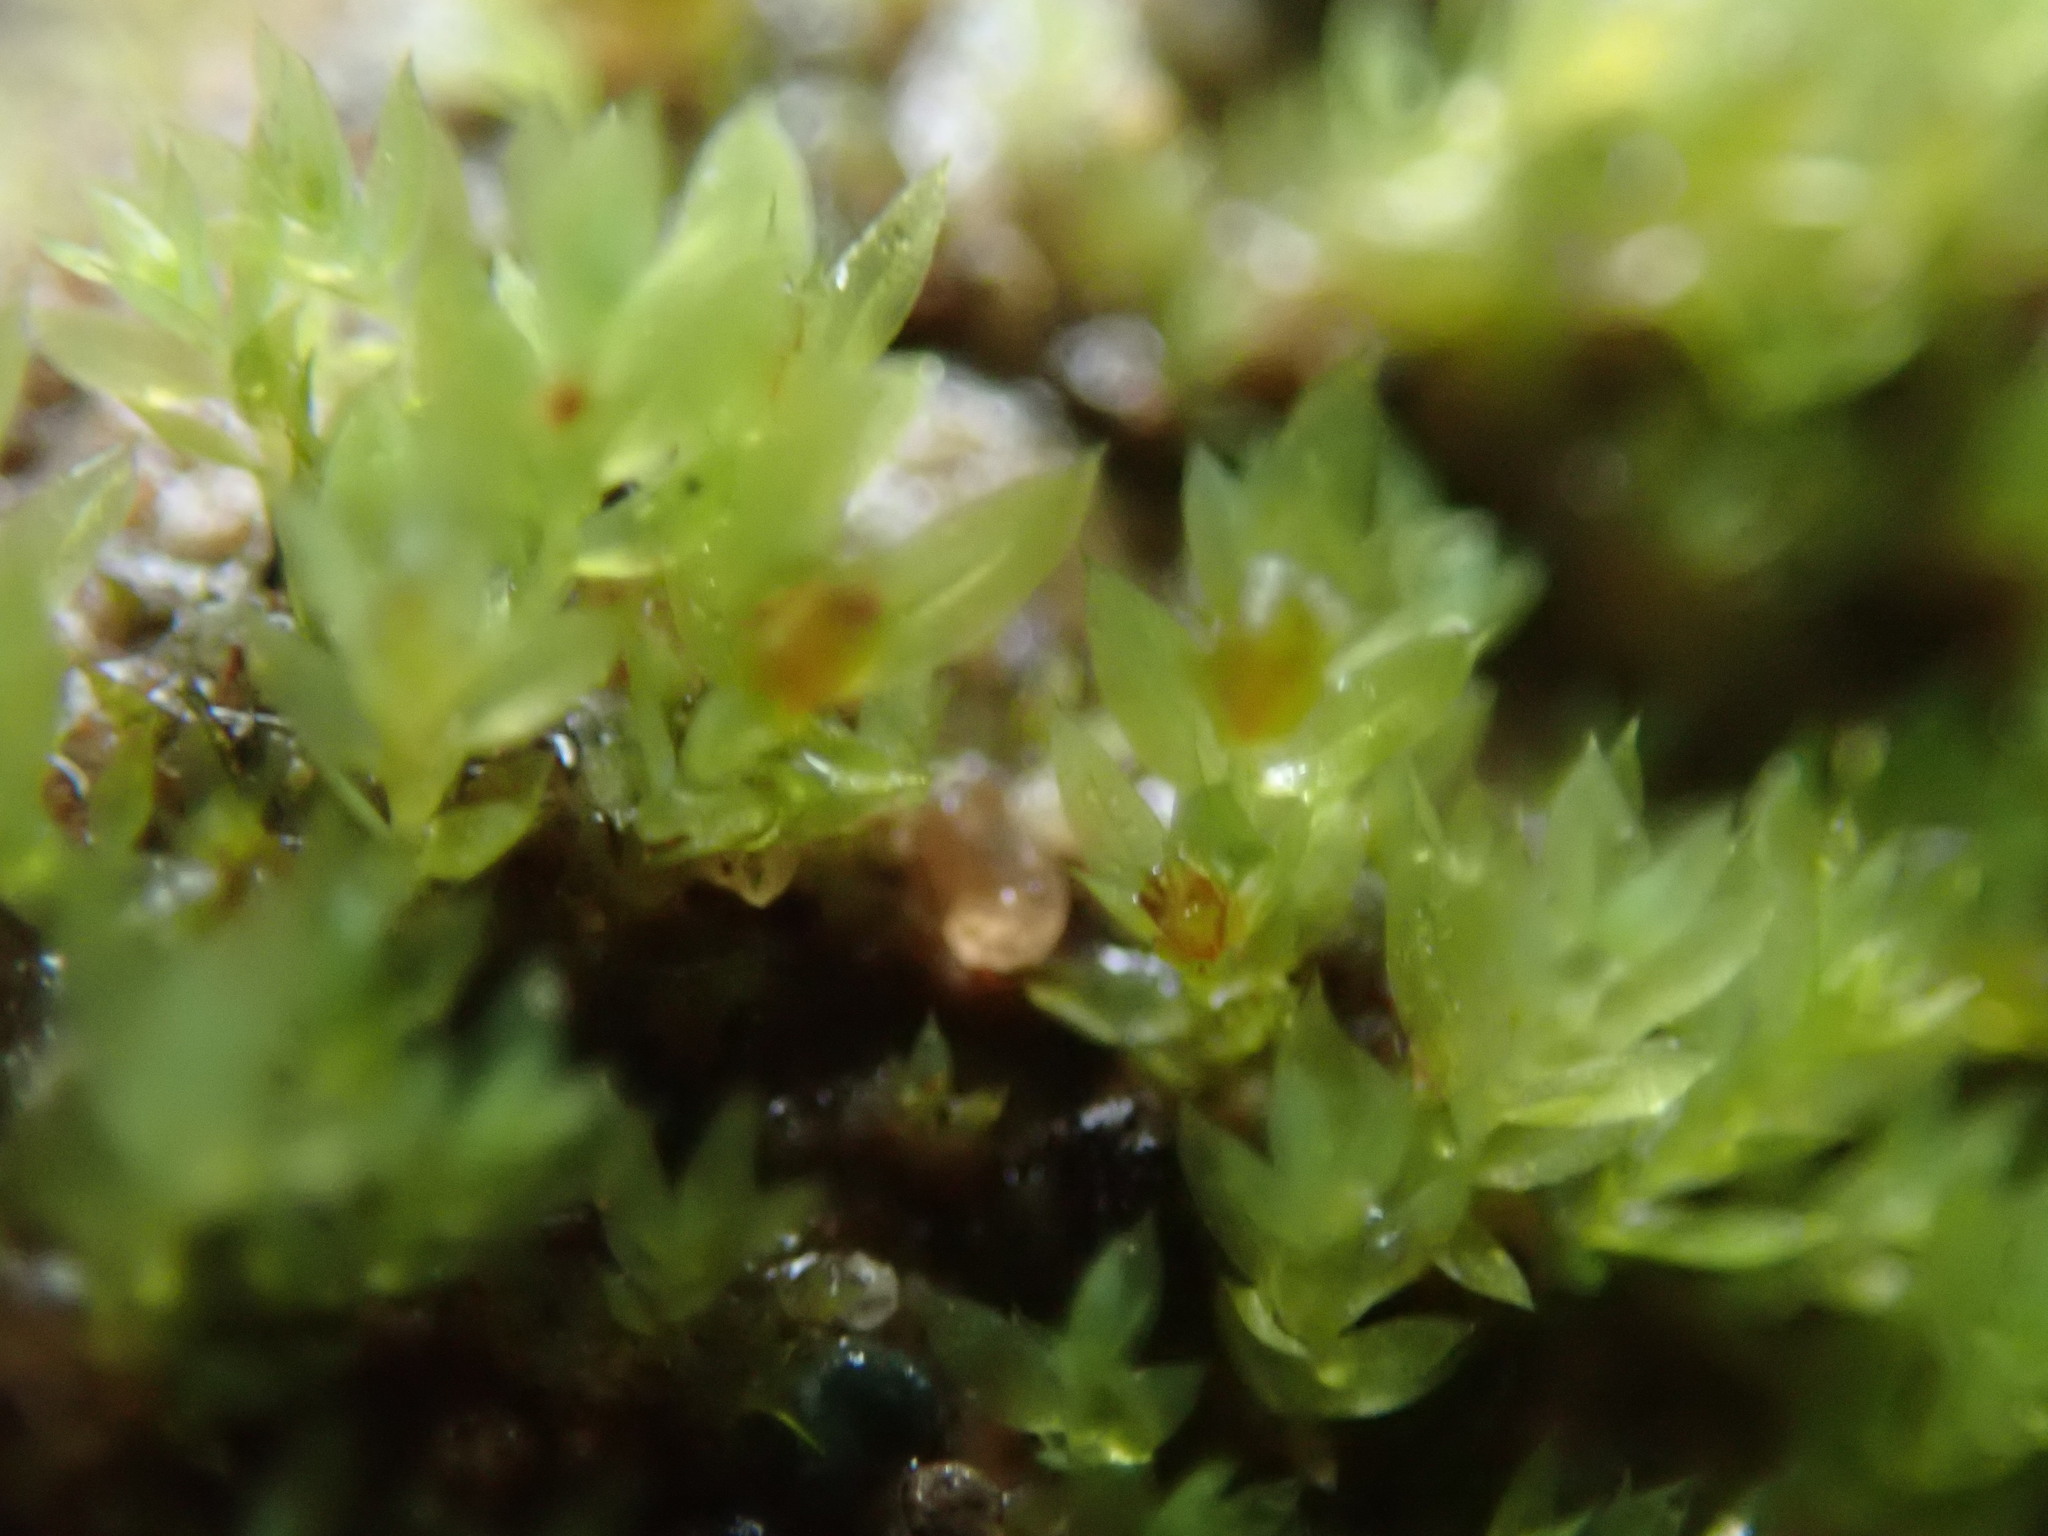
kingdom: Plantae
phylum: Bryophyta
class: Bryopsida
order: Bryales
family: Mniaceae
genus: Epipterygium
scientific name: Epipterygium biauritum
